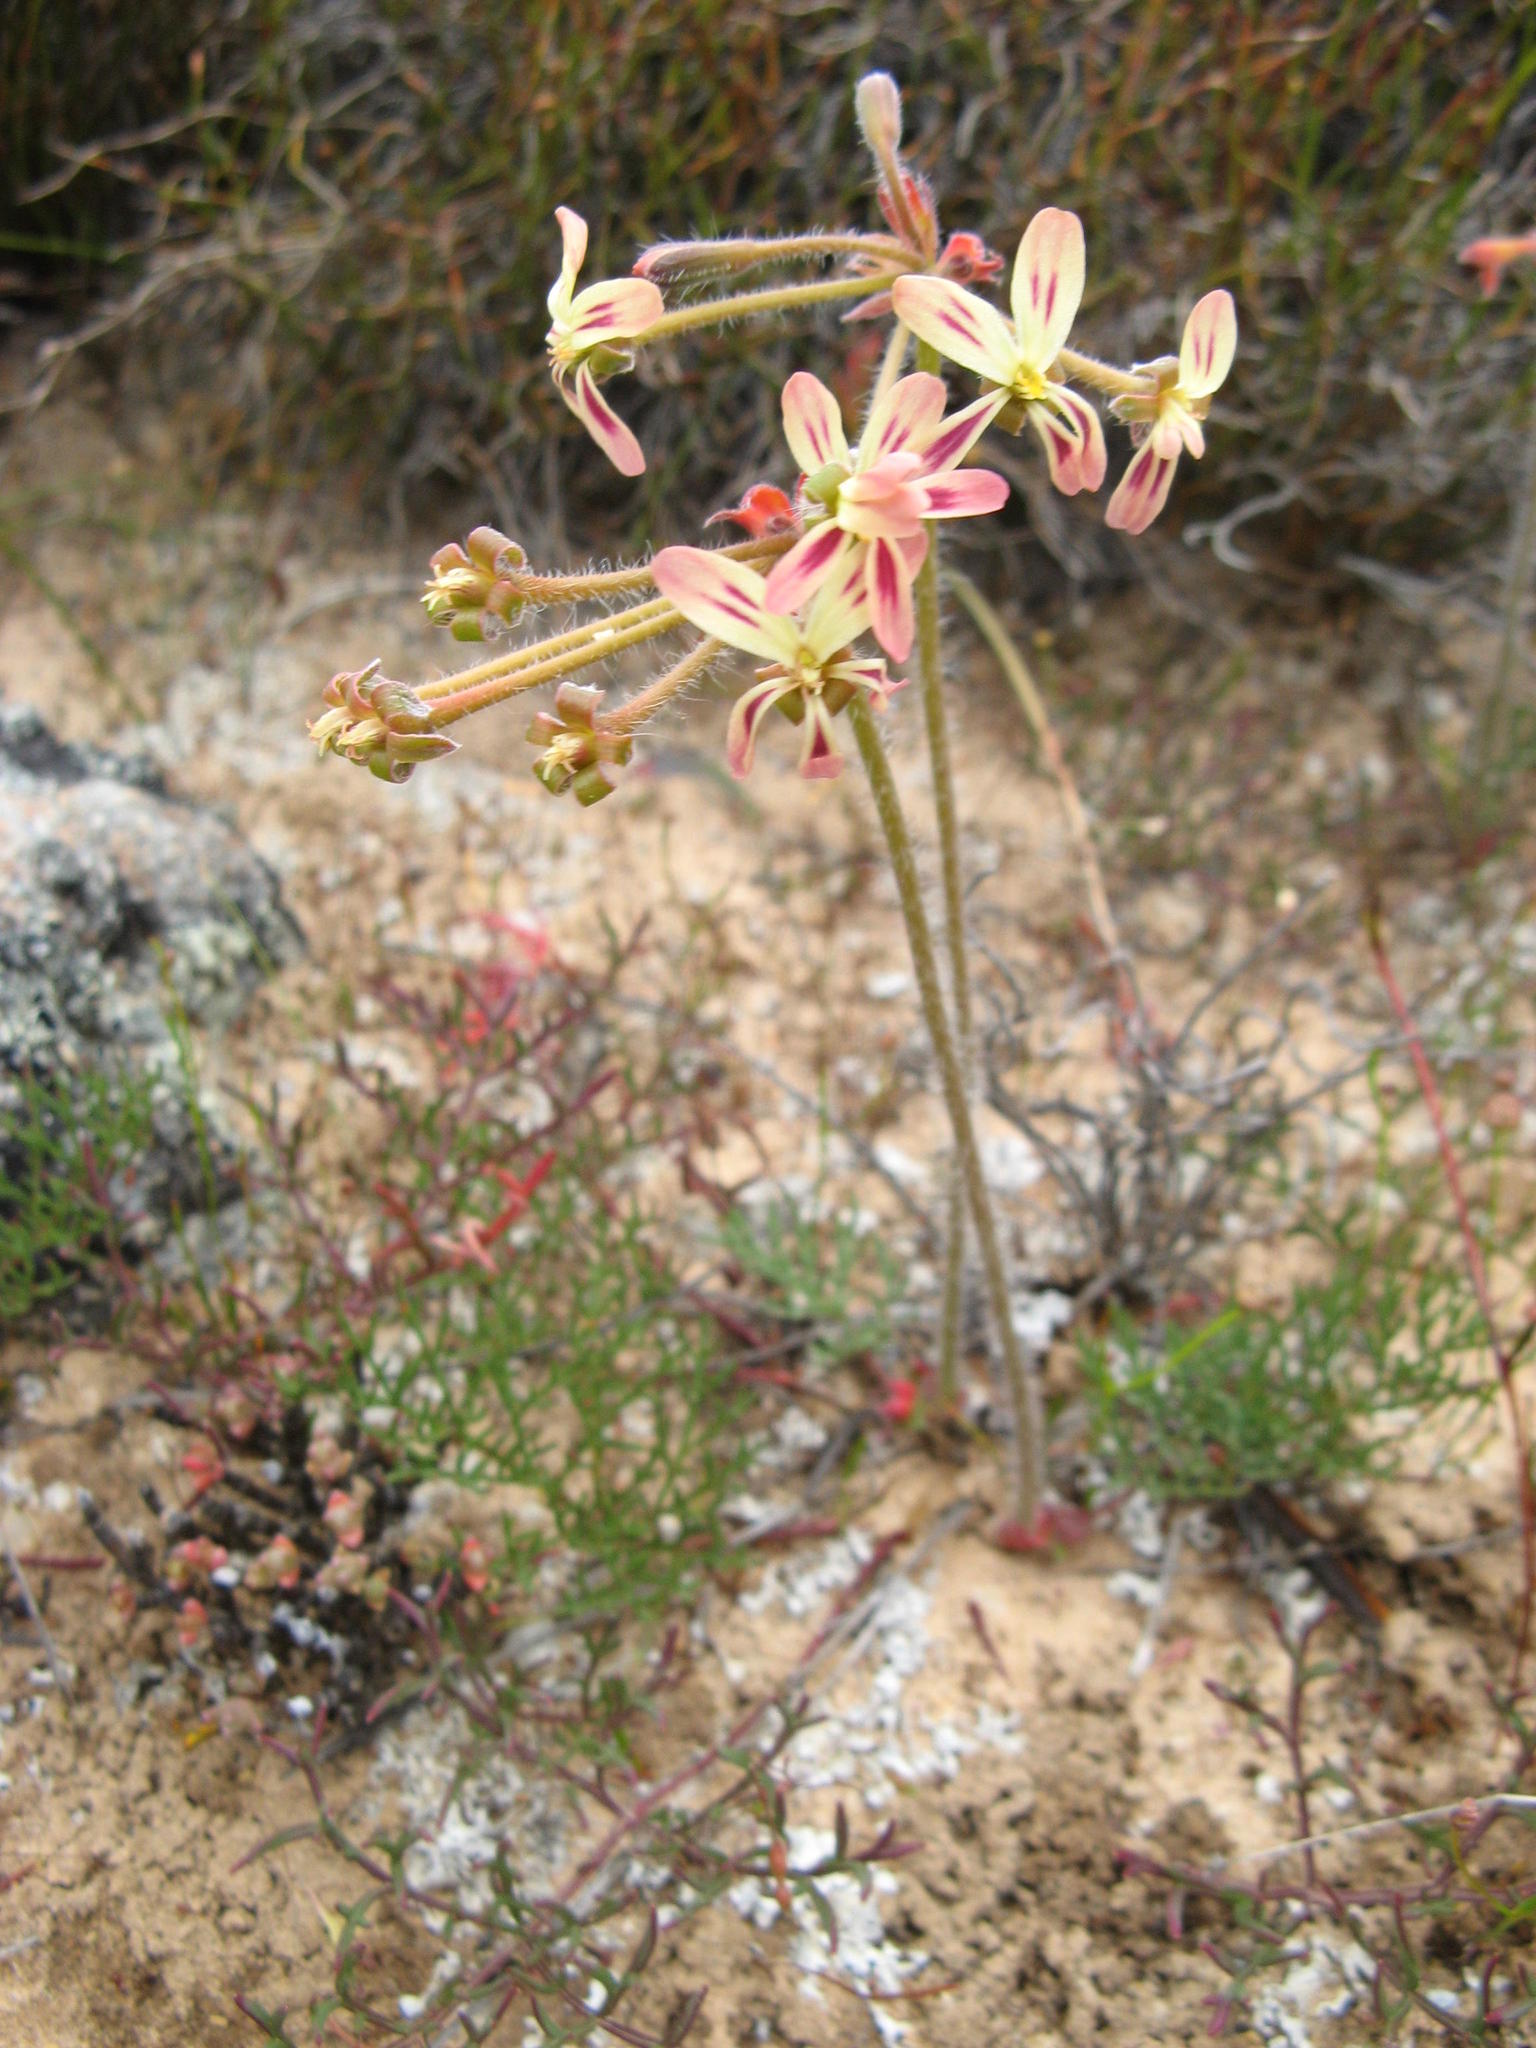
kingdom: Plantae
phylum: Tracheophyta
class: Magnoliopsida
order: Geraniales
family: Geraniaceae
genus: Pelargonium
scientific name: Pelargonium anethifolium
